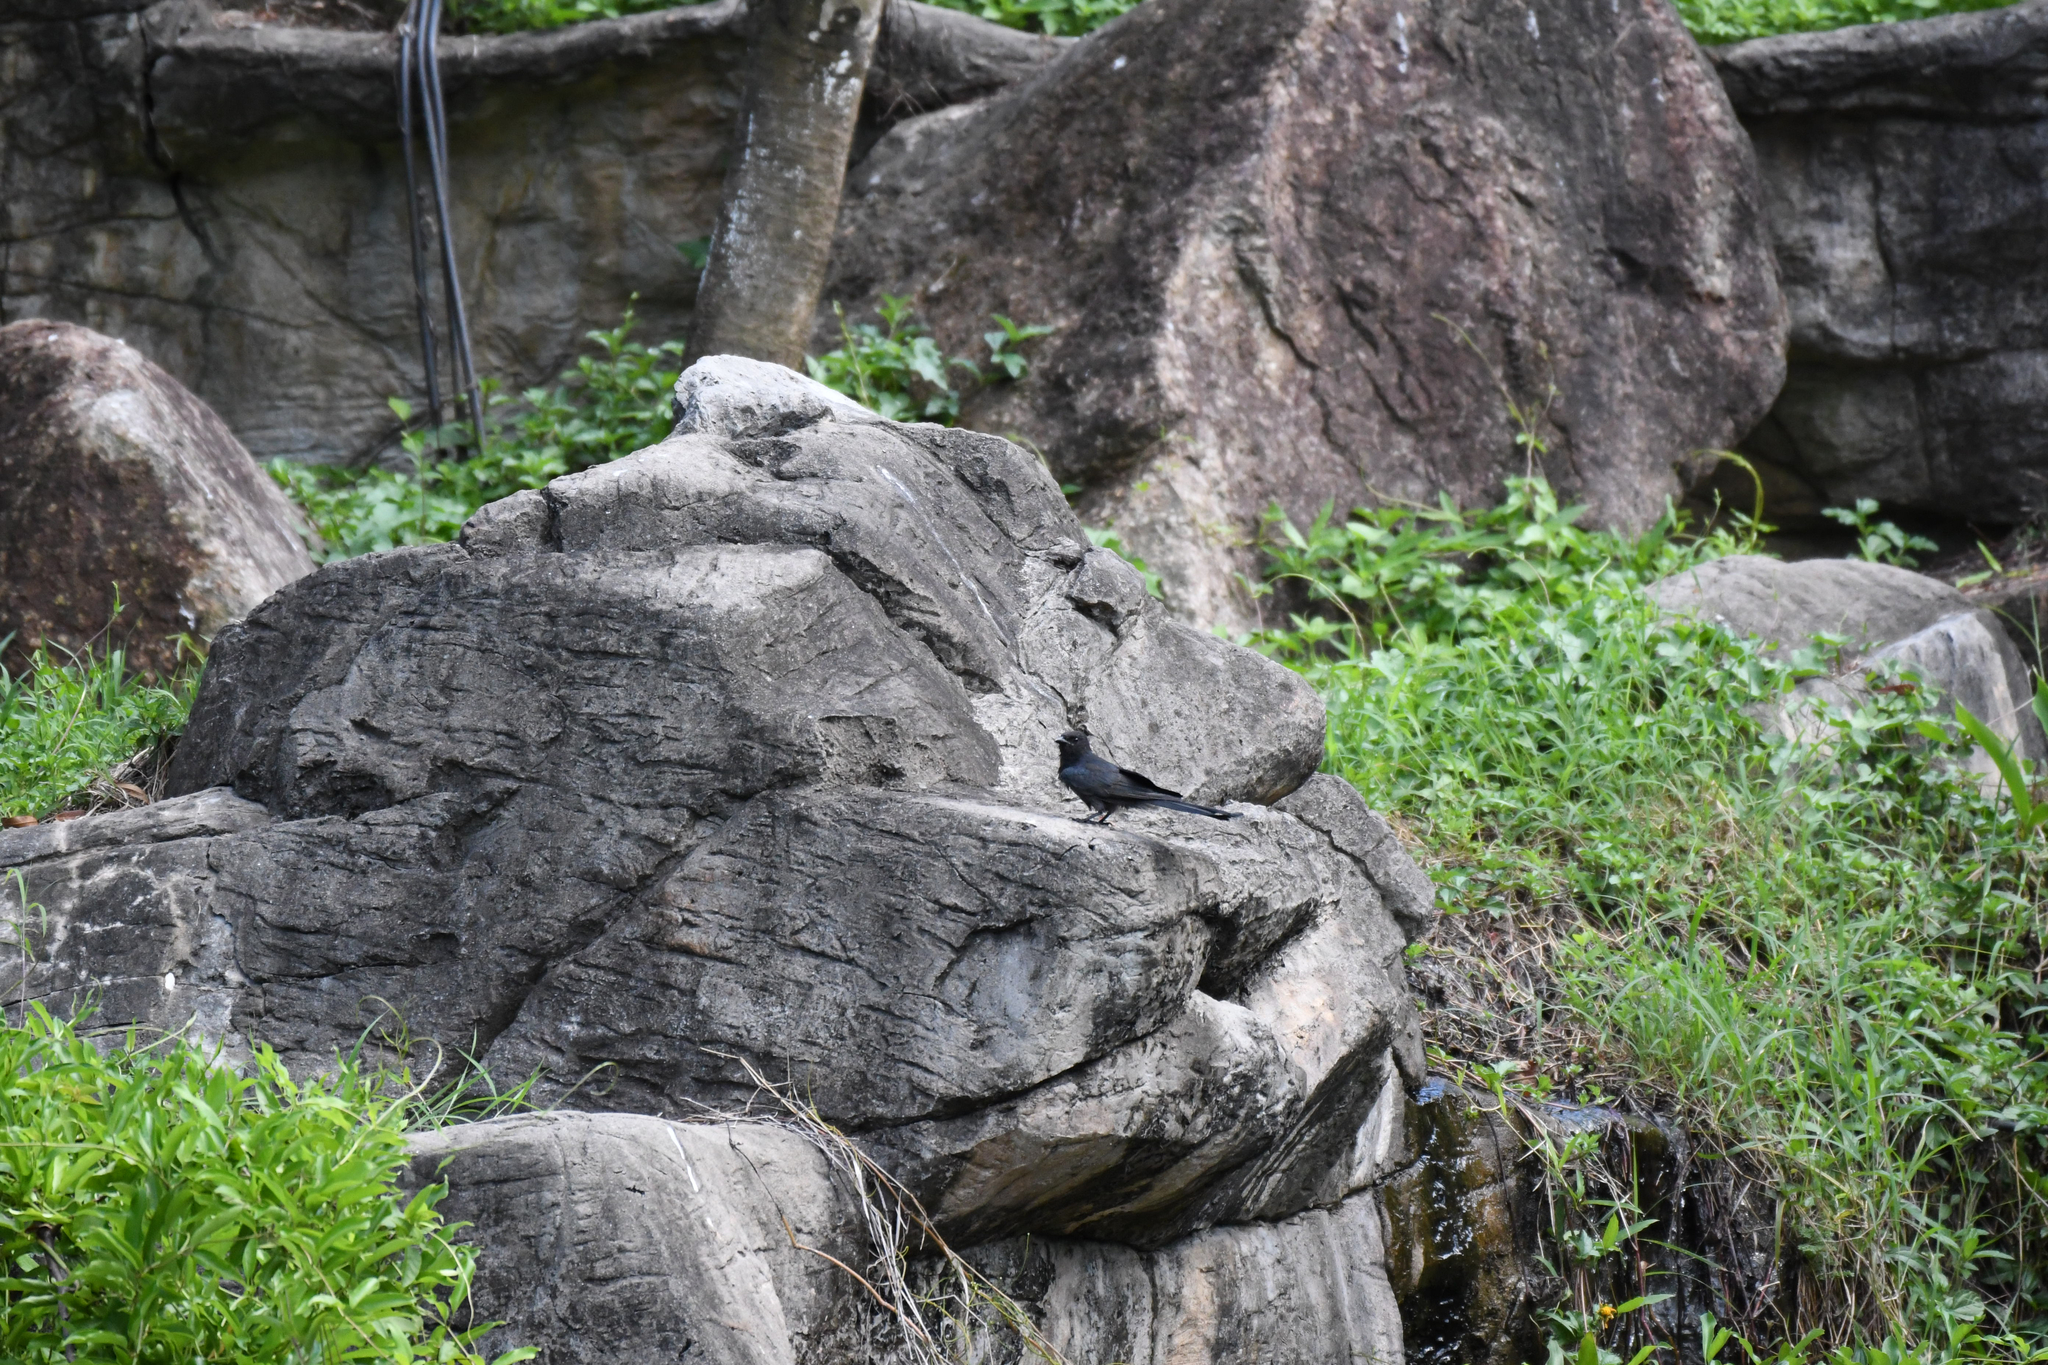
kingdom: Animalia
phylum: Chordata
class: Aves
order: Passeriformes
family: Dicruridae
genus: Dicrurus
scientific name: Dicrurus macrocercus
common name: Black drongo
